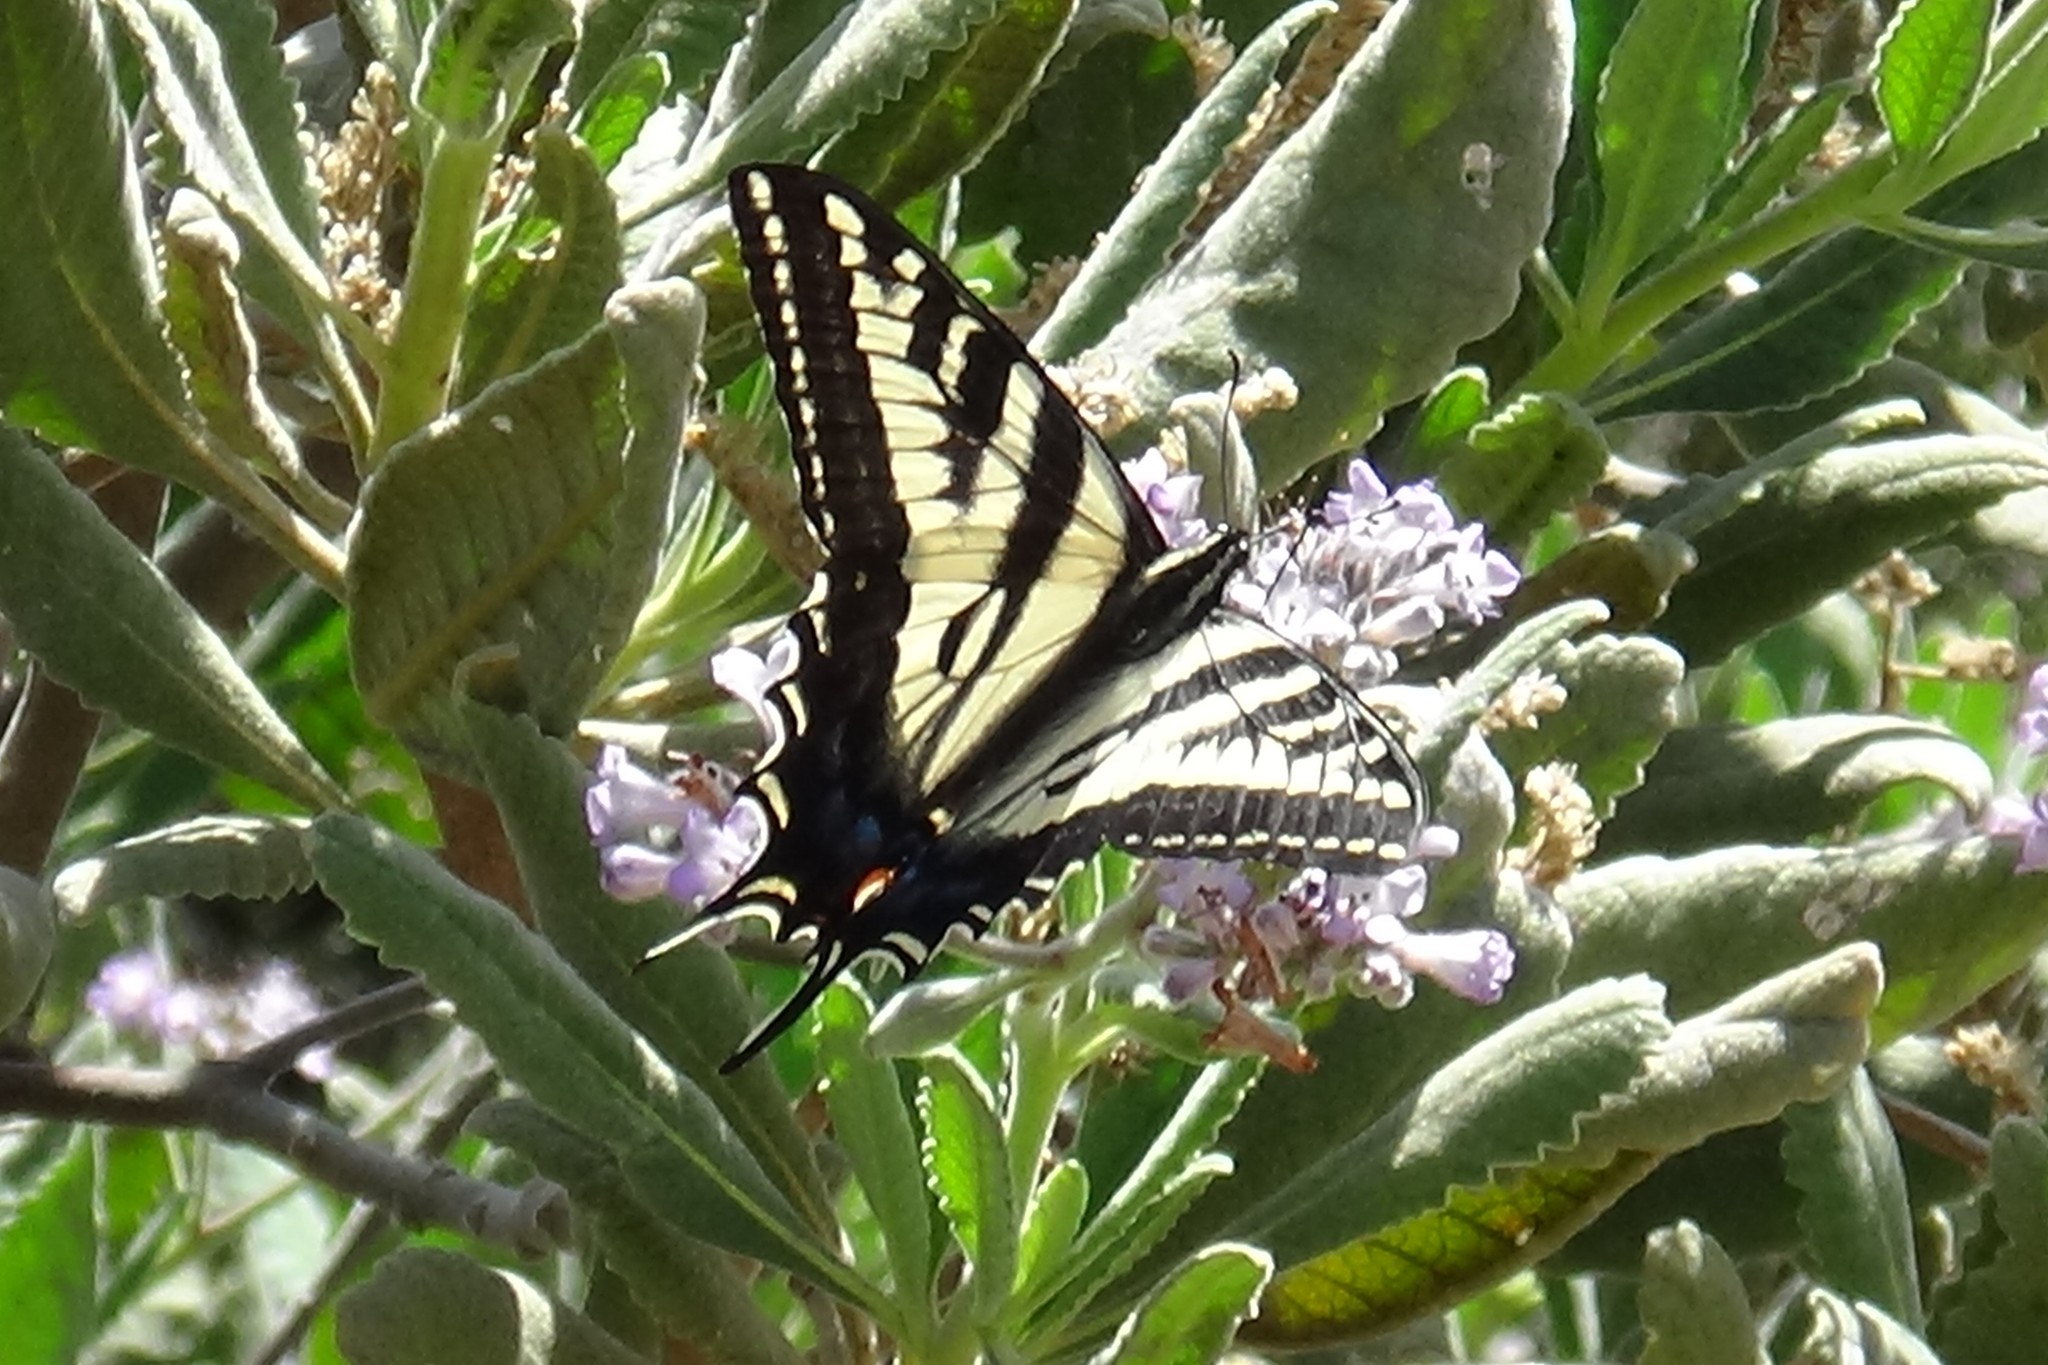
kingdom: Animalia
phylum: Arthropoda
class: Insecta
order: Lepidoptera
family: Papilionidae
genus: Papilio
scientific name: Papilio eurymedon
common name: Pale tiger swallowtail
